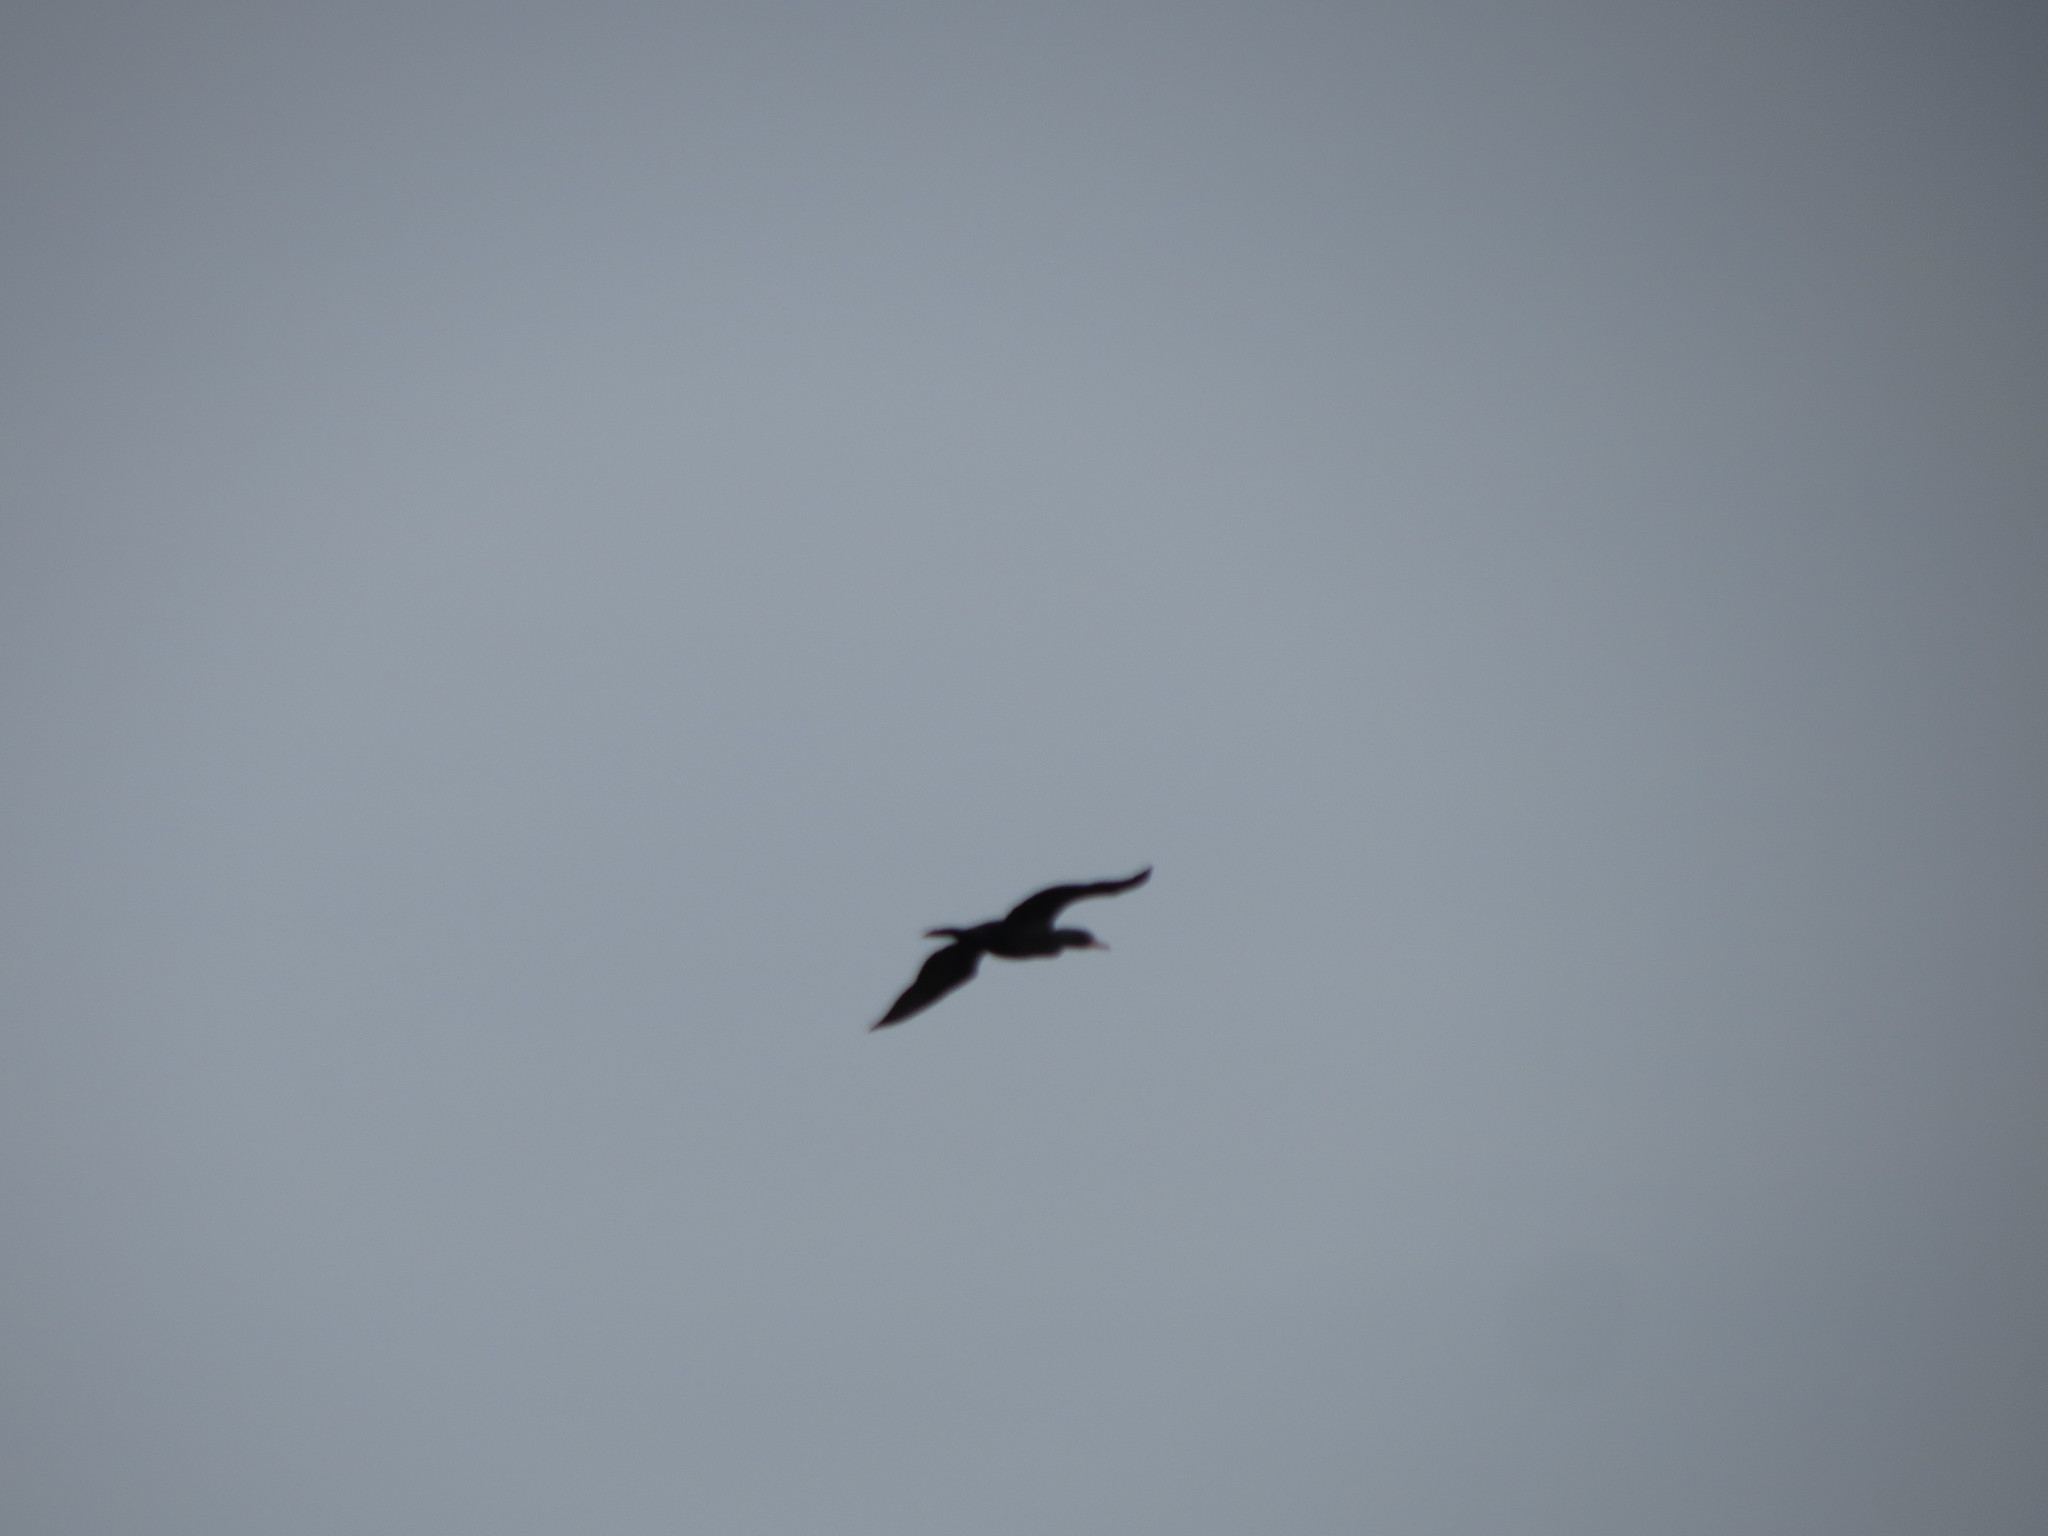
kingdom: Animalia
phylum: Chordata
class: Aves
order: Suliformes
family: Phalacrocoracidae
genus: Phalacrocorax
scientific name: Phalacrocorax auritus
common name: Double-crested cormorant
